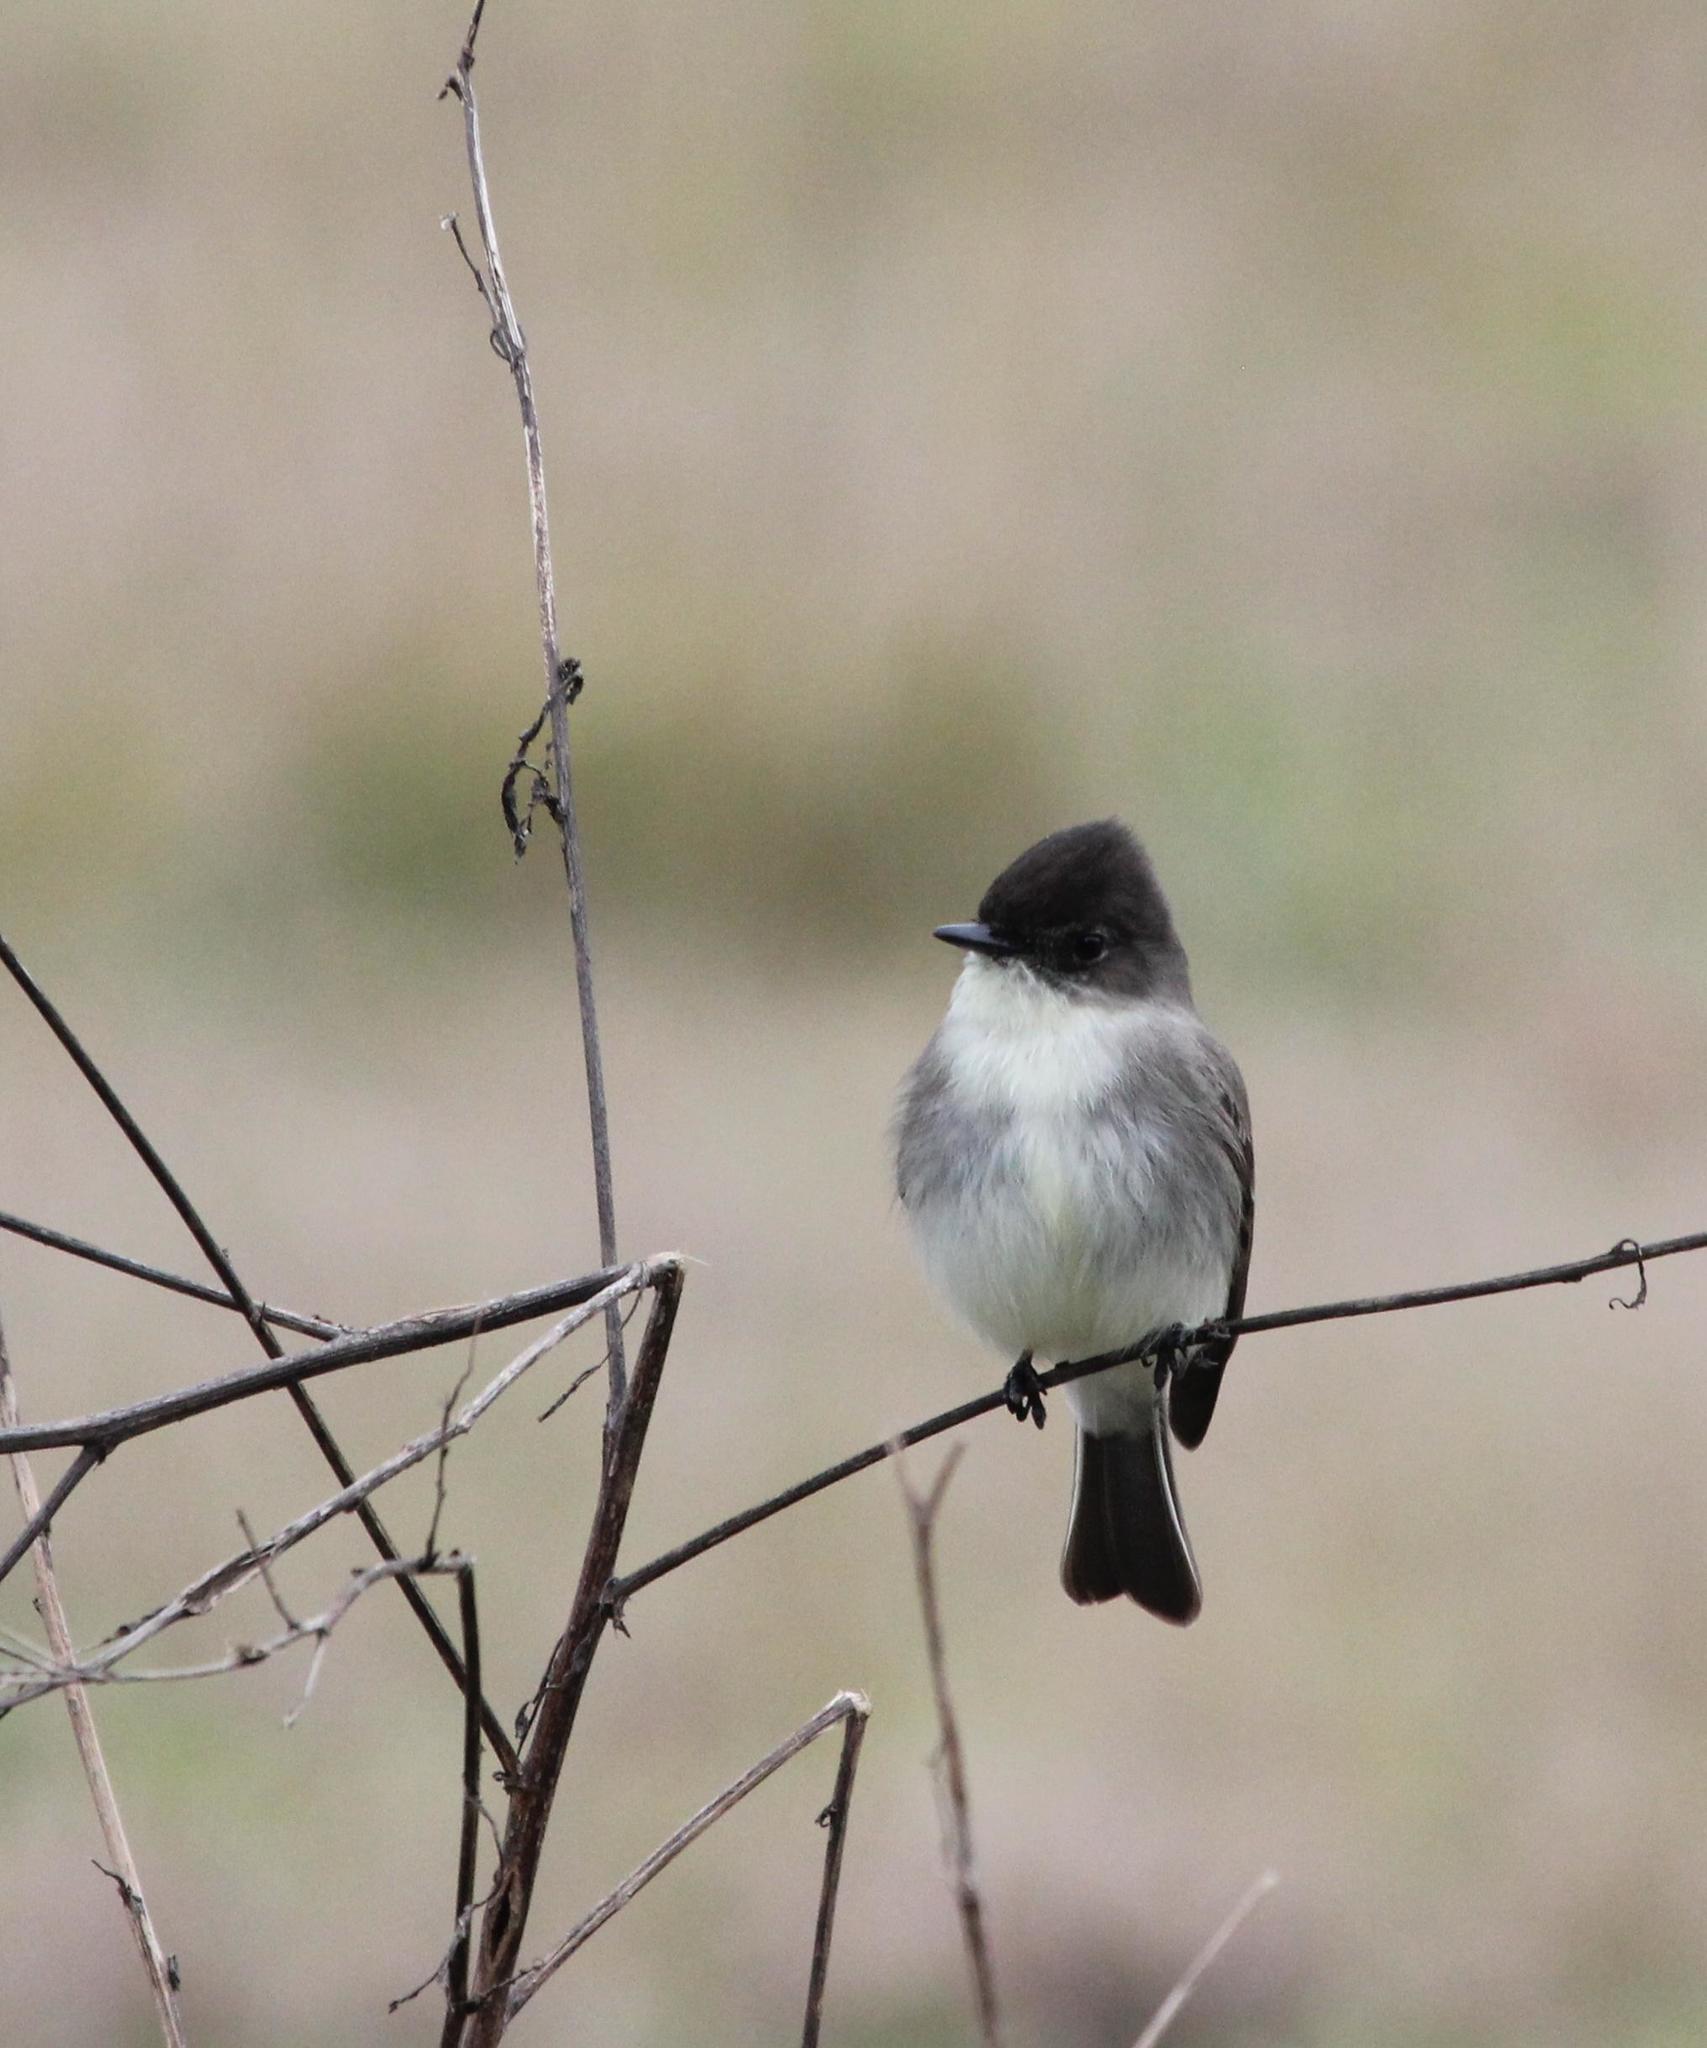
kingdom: Animalia
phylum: Chordata
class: Aves
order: Passeriformes
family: Tyrannidae
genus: Sayornis
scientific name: Sayornis phoebe
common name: Eastern phoebe
